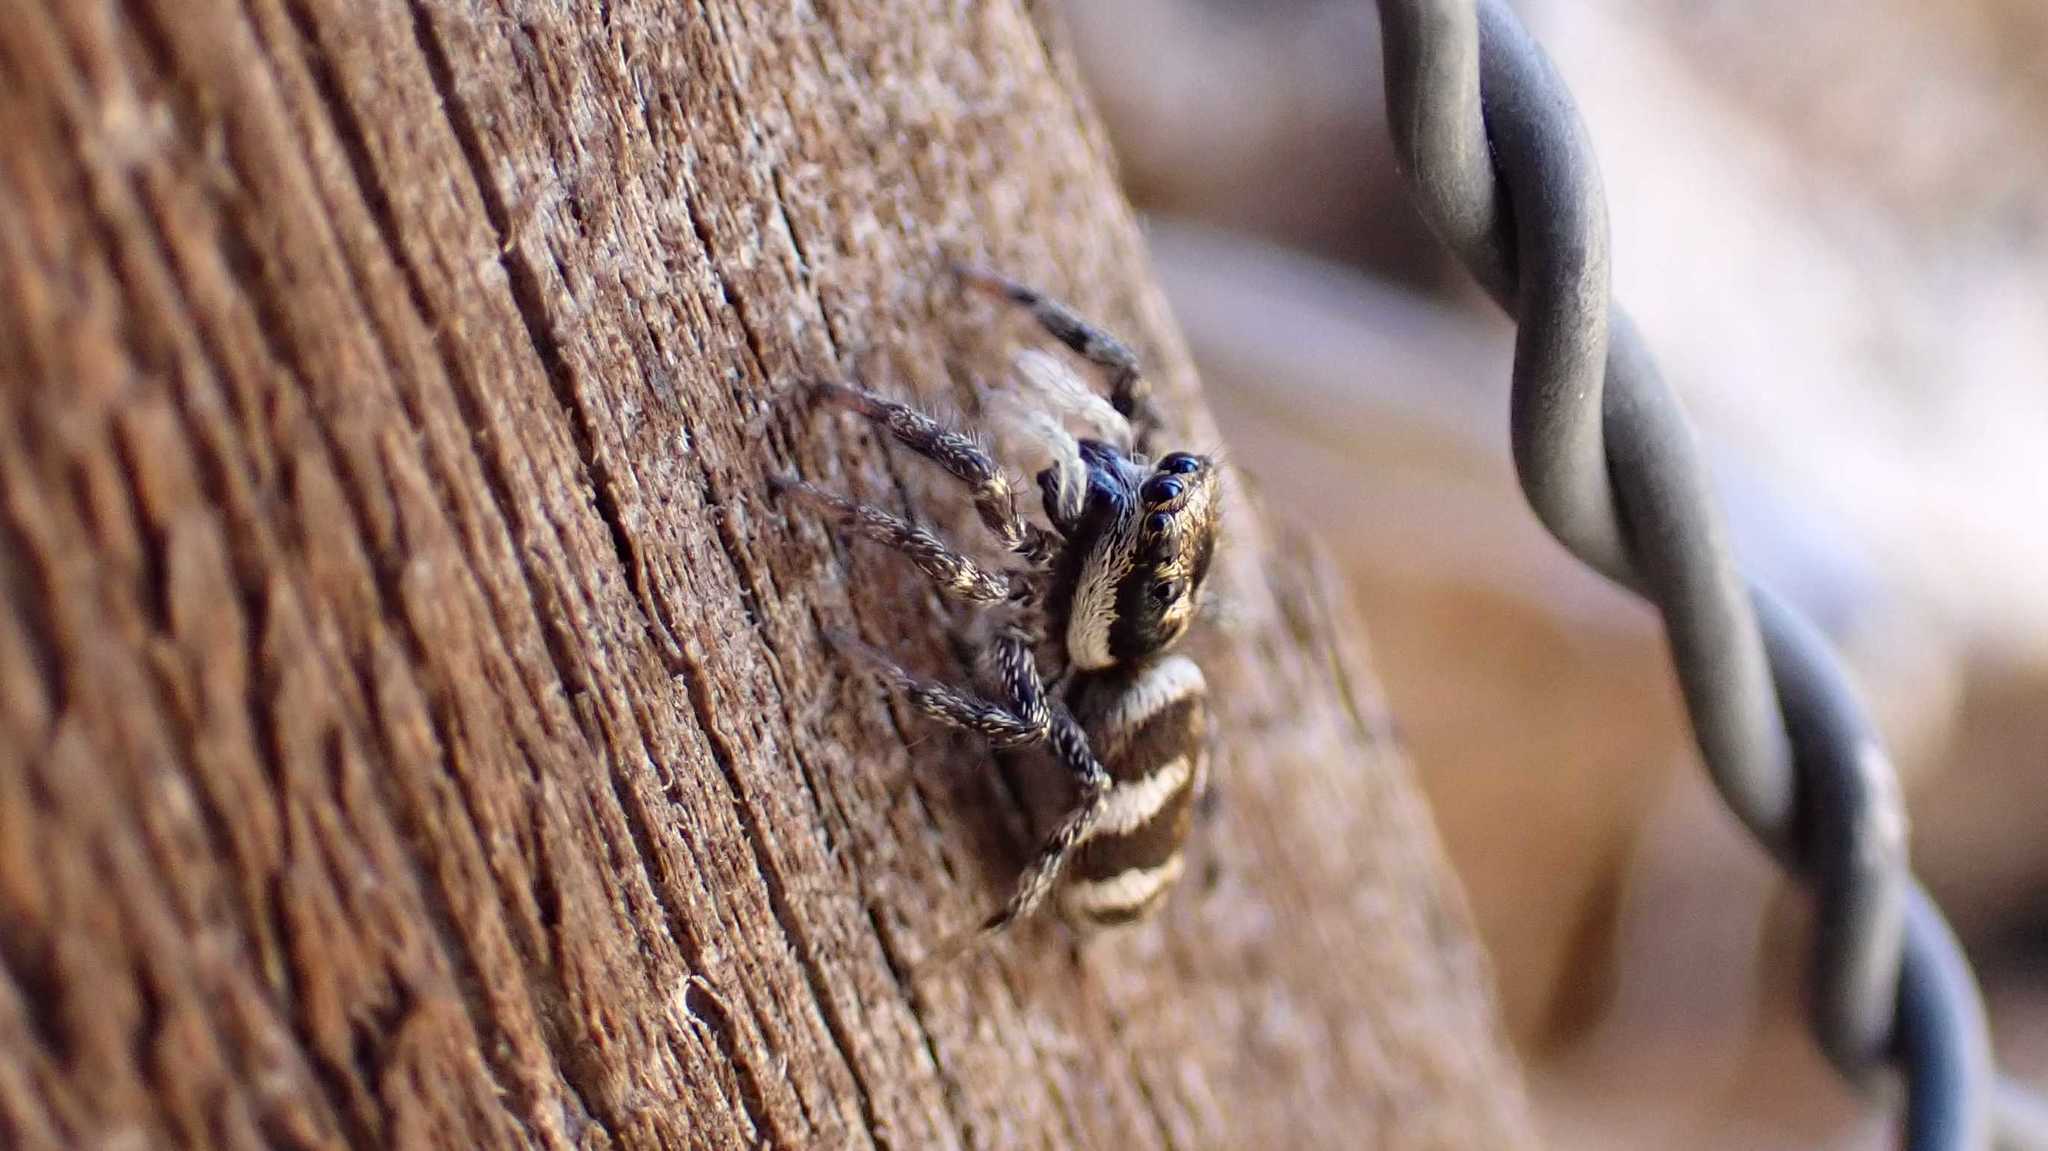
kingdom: Animalia
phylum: Arthropoda
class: Arachnida
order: Araneae
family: Salticidae
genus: Salticus
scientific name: Salticus scenicus
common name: Zebra jumper
